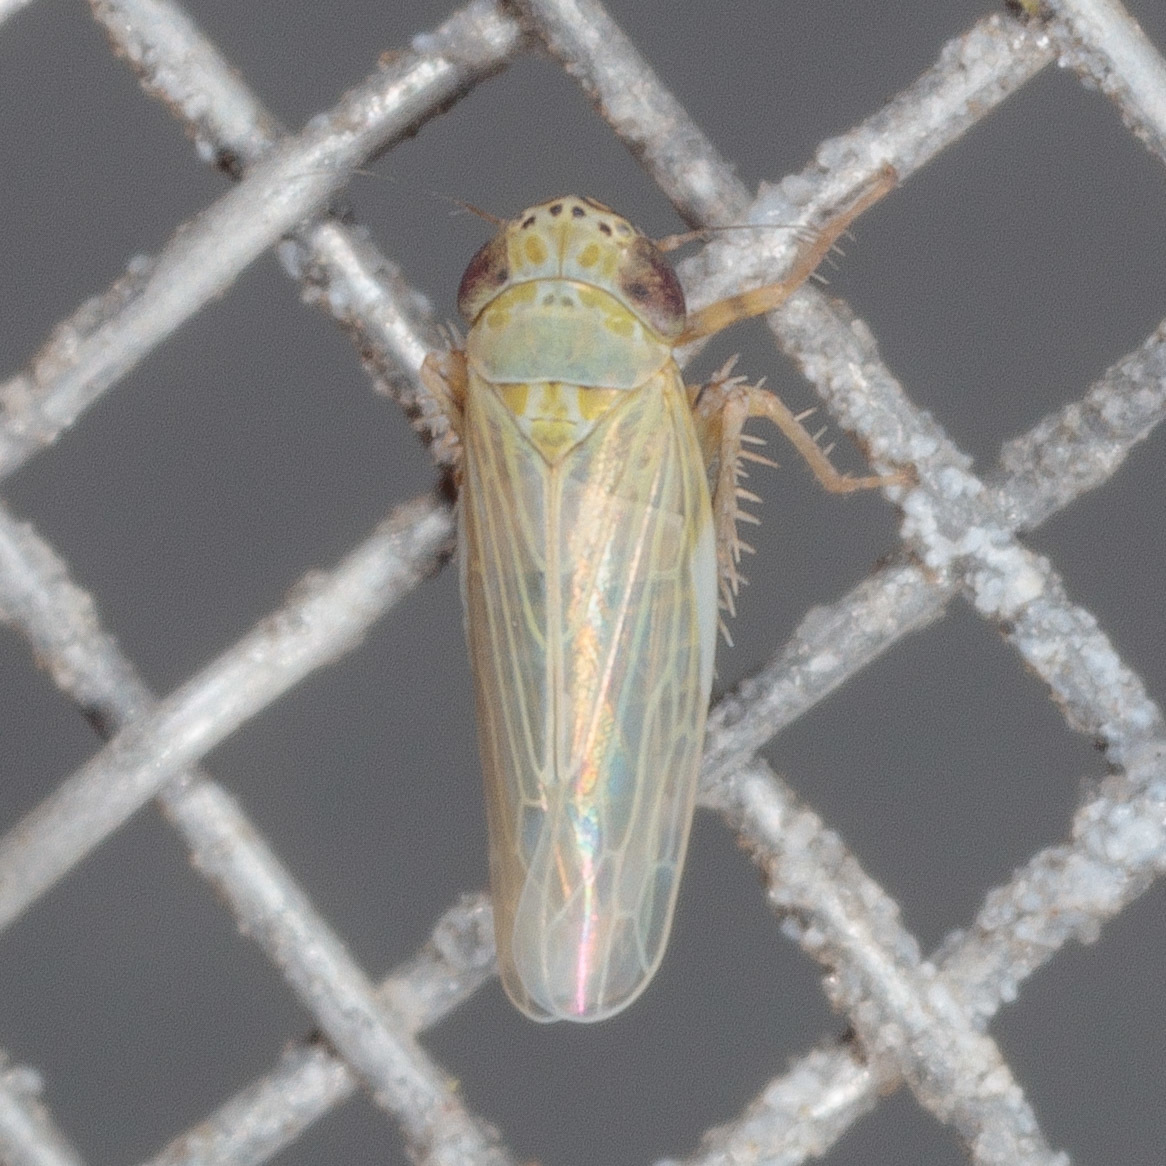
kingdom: Animalia
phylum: Arthropoda
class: Insecta
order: Hemiptera
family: Cicadellidae
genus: Graminella
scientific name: Graminella nigrifrons
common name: Blackfaced leafhopper
